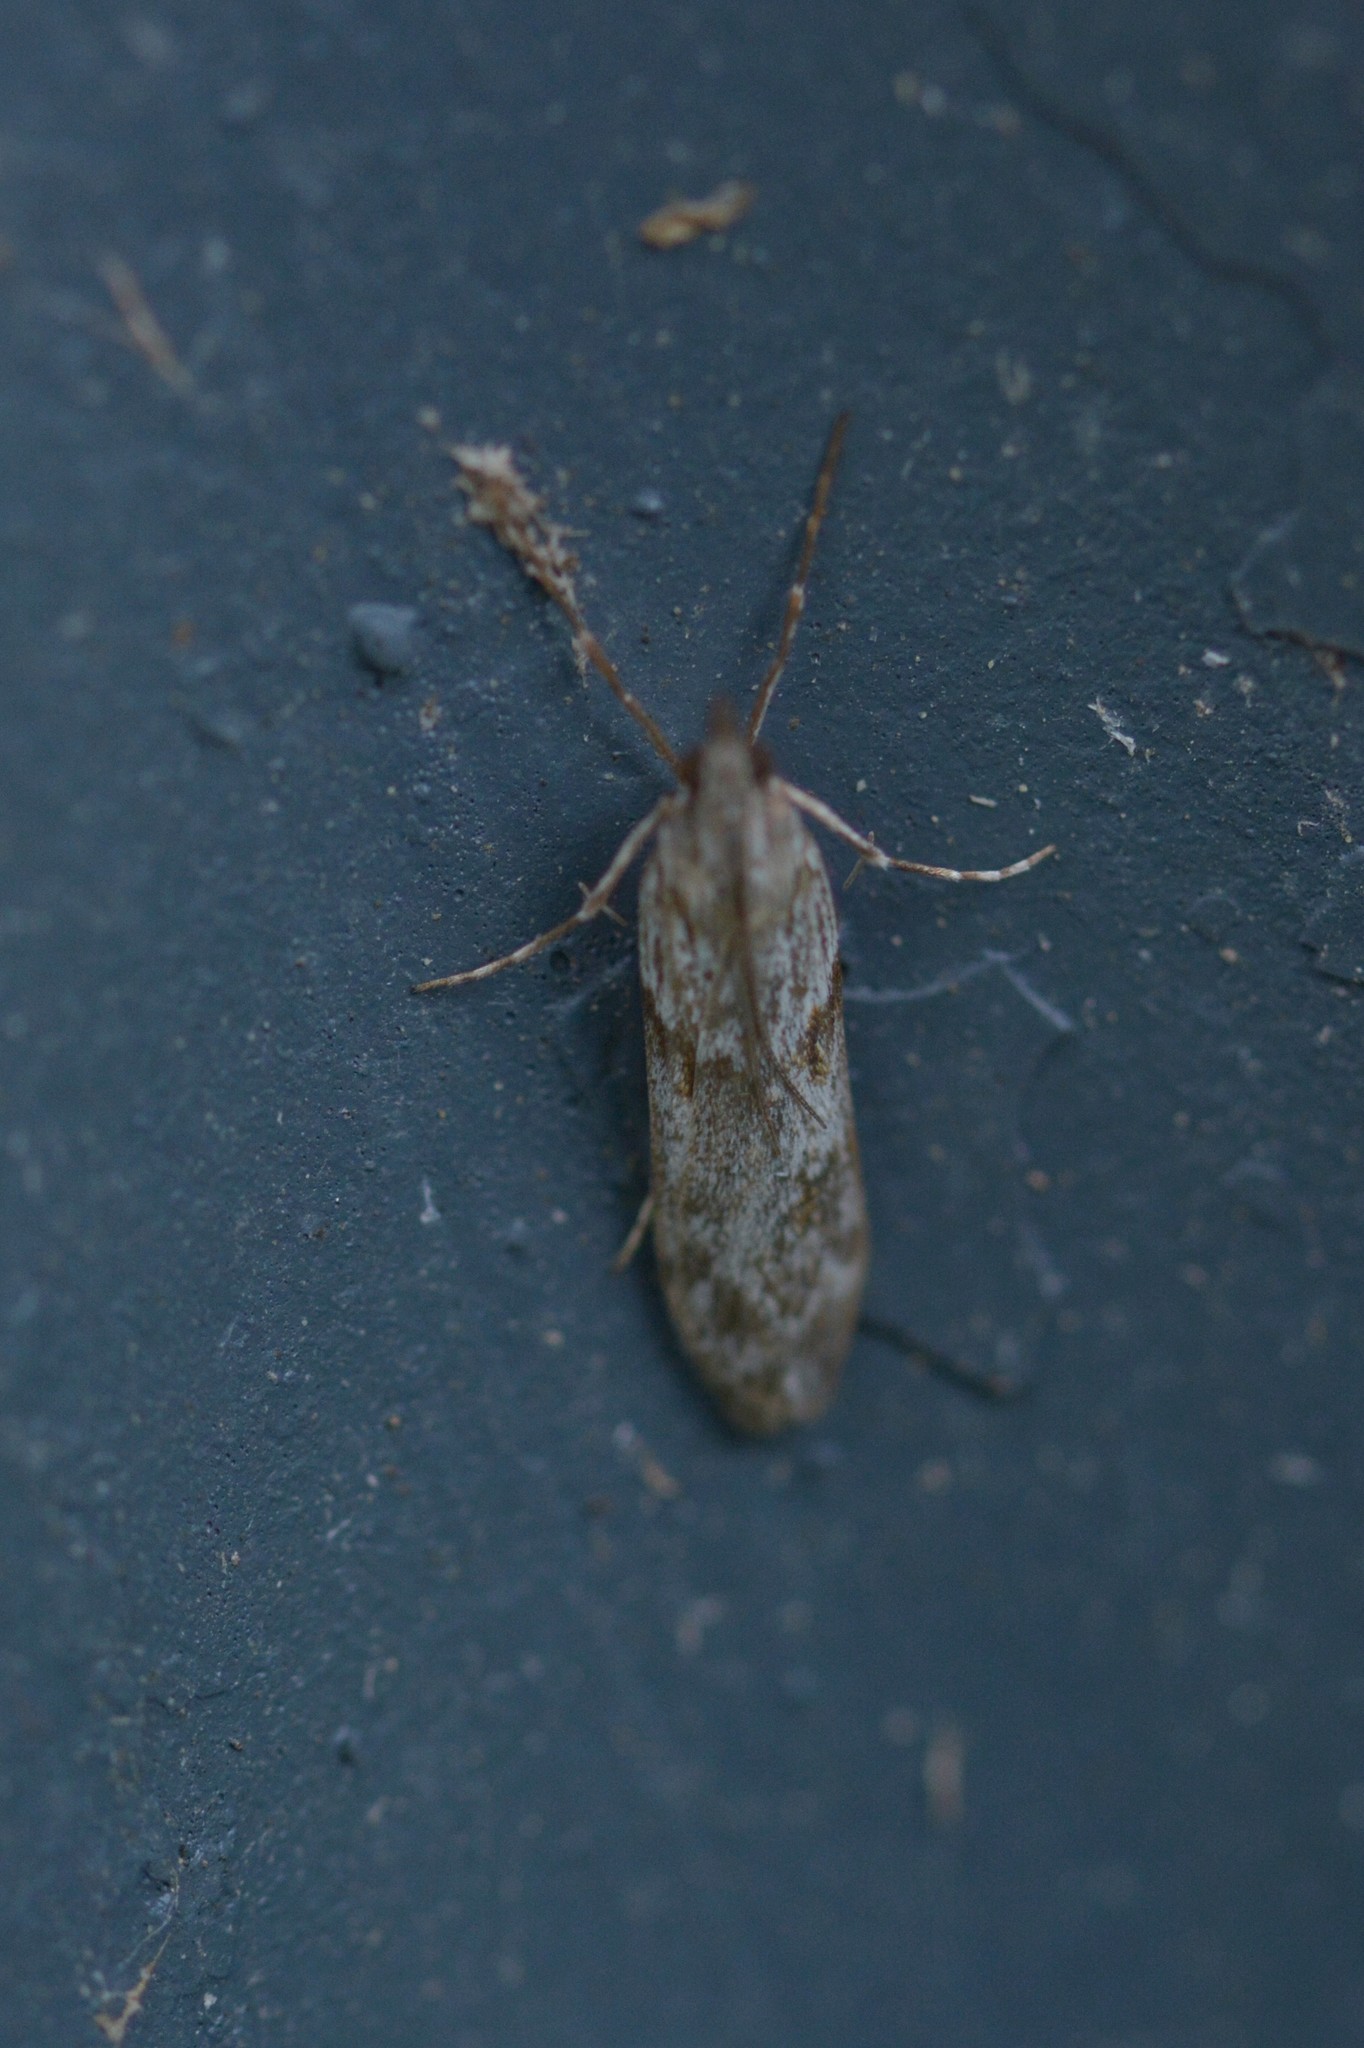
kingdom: Animalia
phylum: Arthropoda
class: Insecta
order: Lepidoptera
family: Crambidae
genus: Scoparia
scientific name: Scoparia halopis
